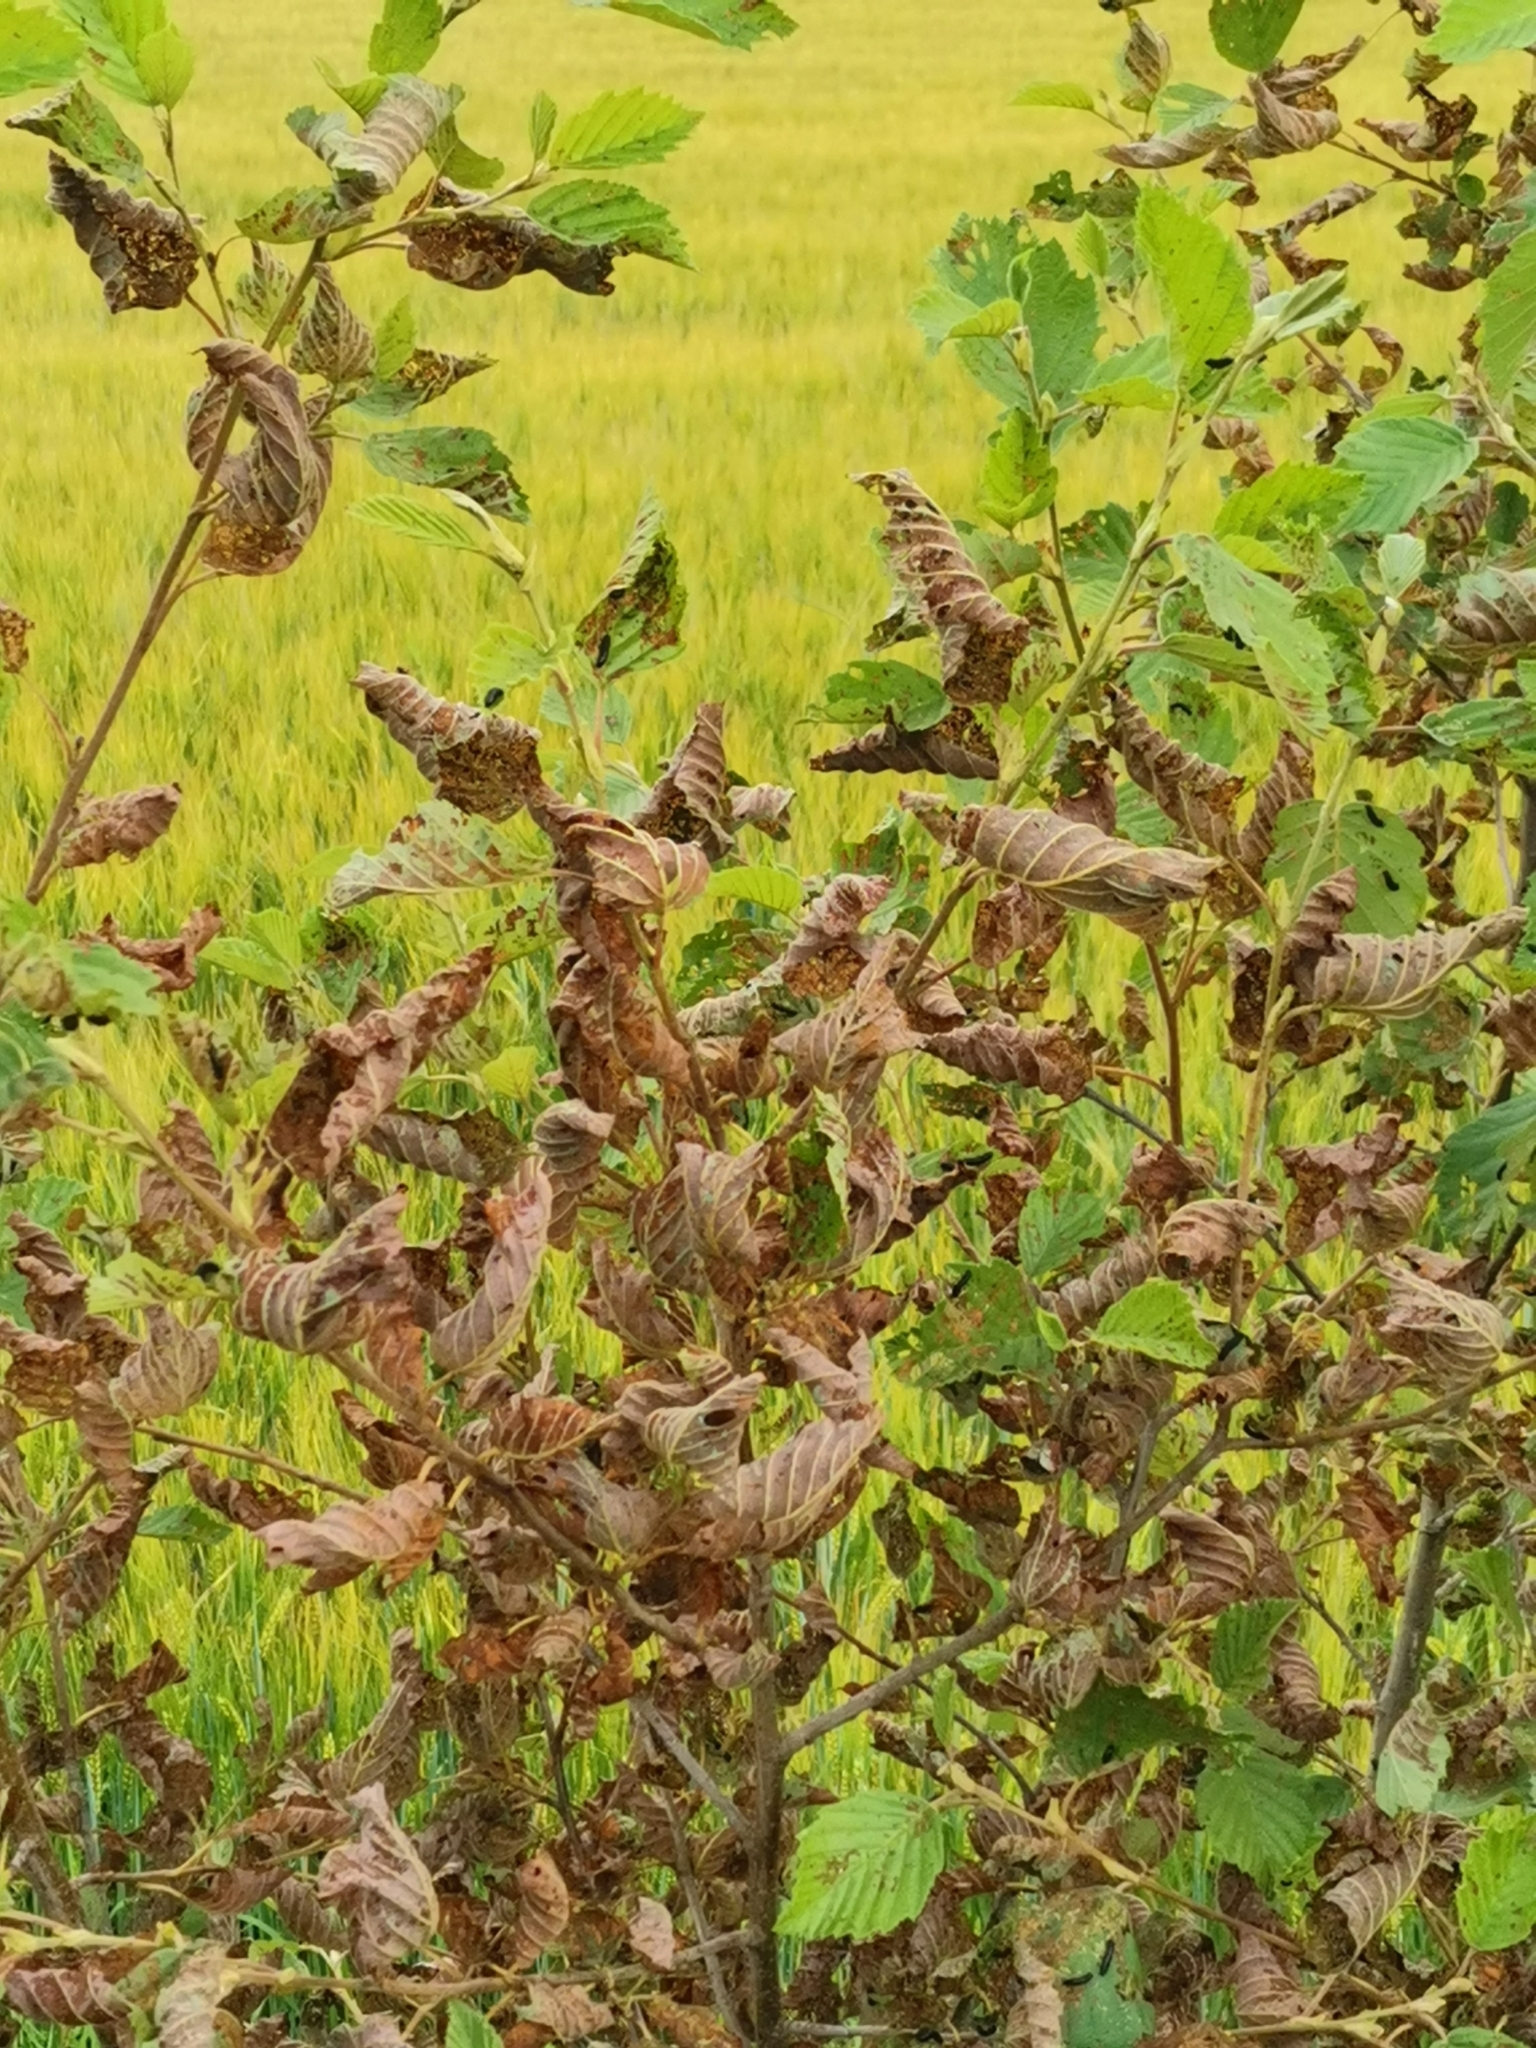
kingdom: Animalia
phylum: Arthropoda
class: Insecta
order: Coleoptera
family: Chrysomelidae
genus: Agelastica
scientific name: Agelastica alni
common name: Alder leaf beetle
